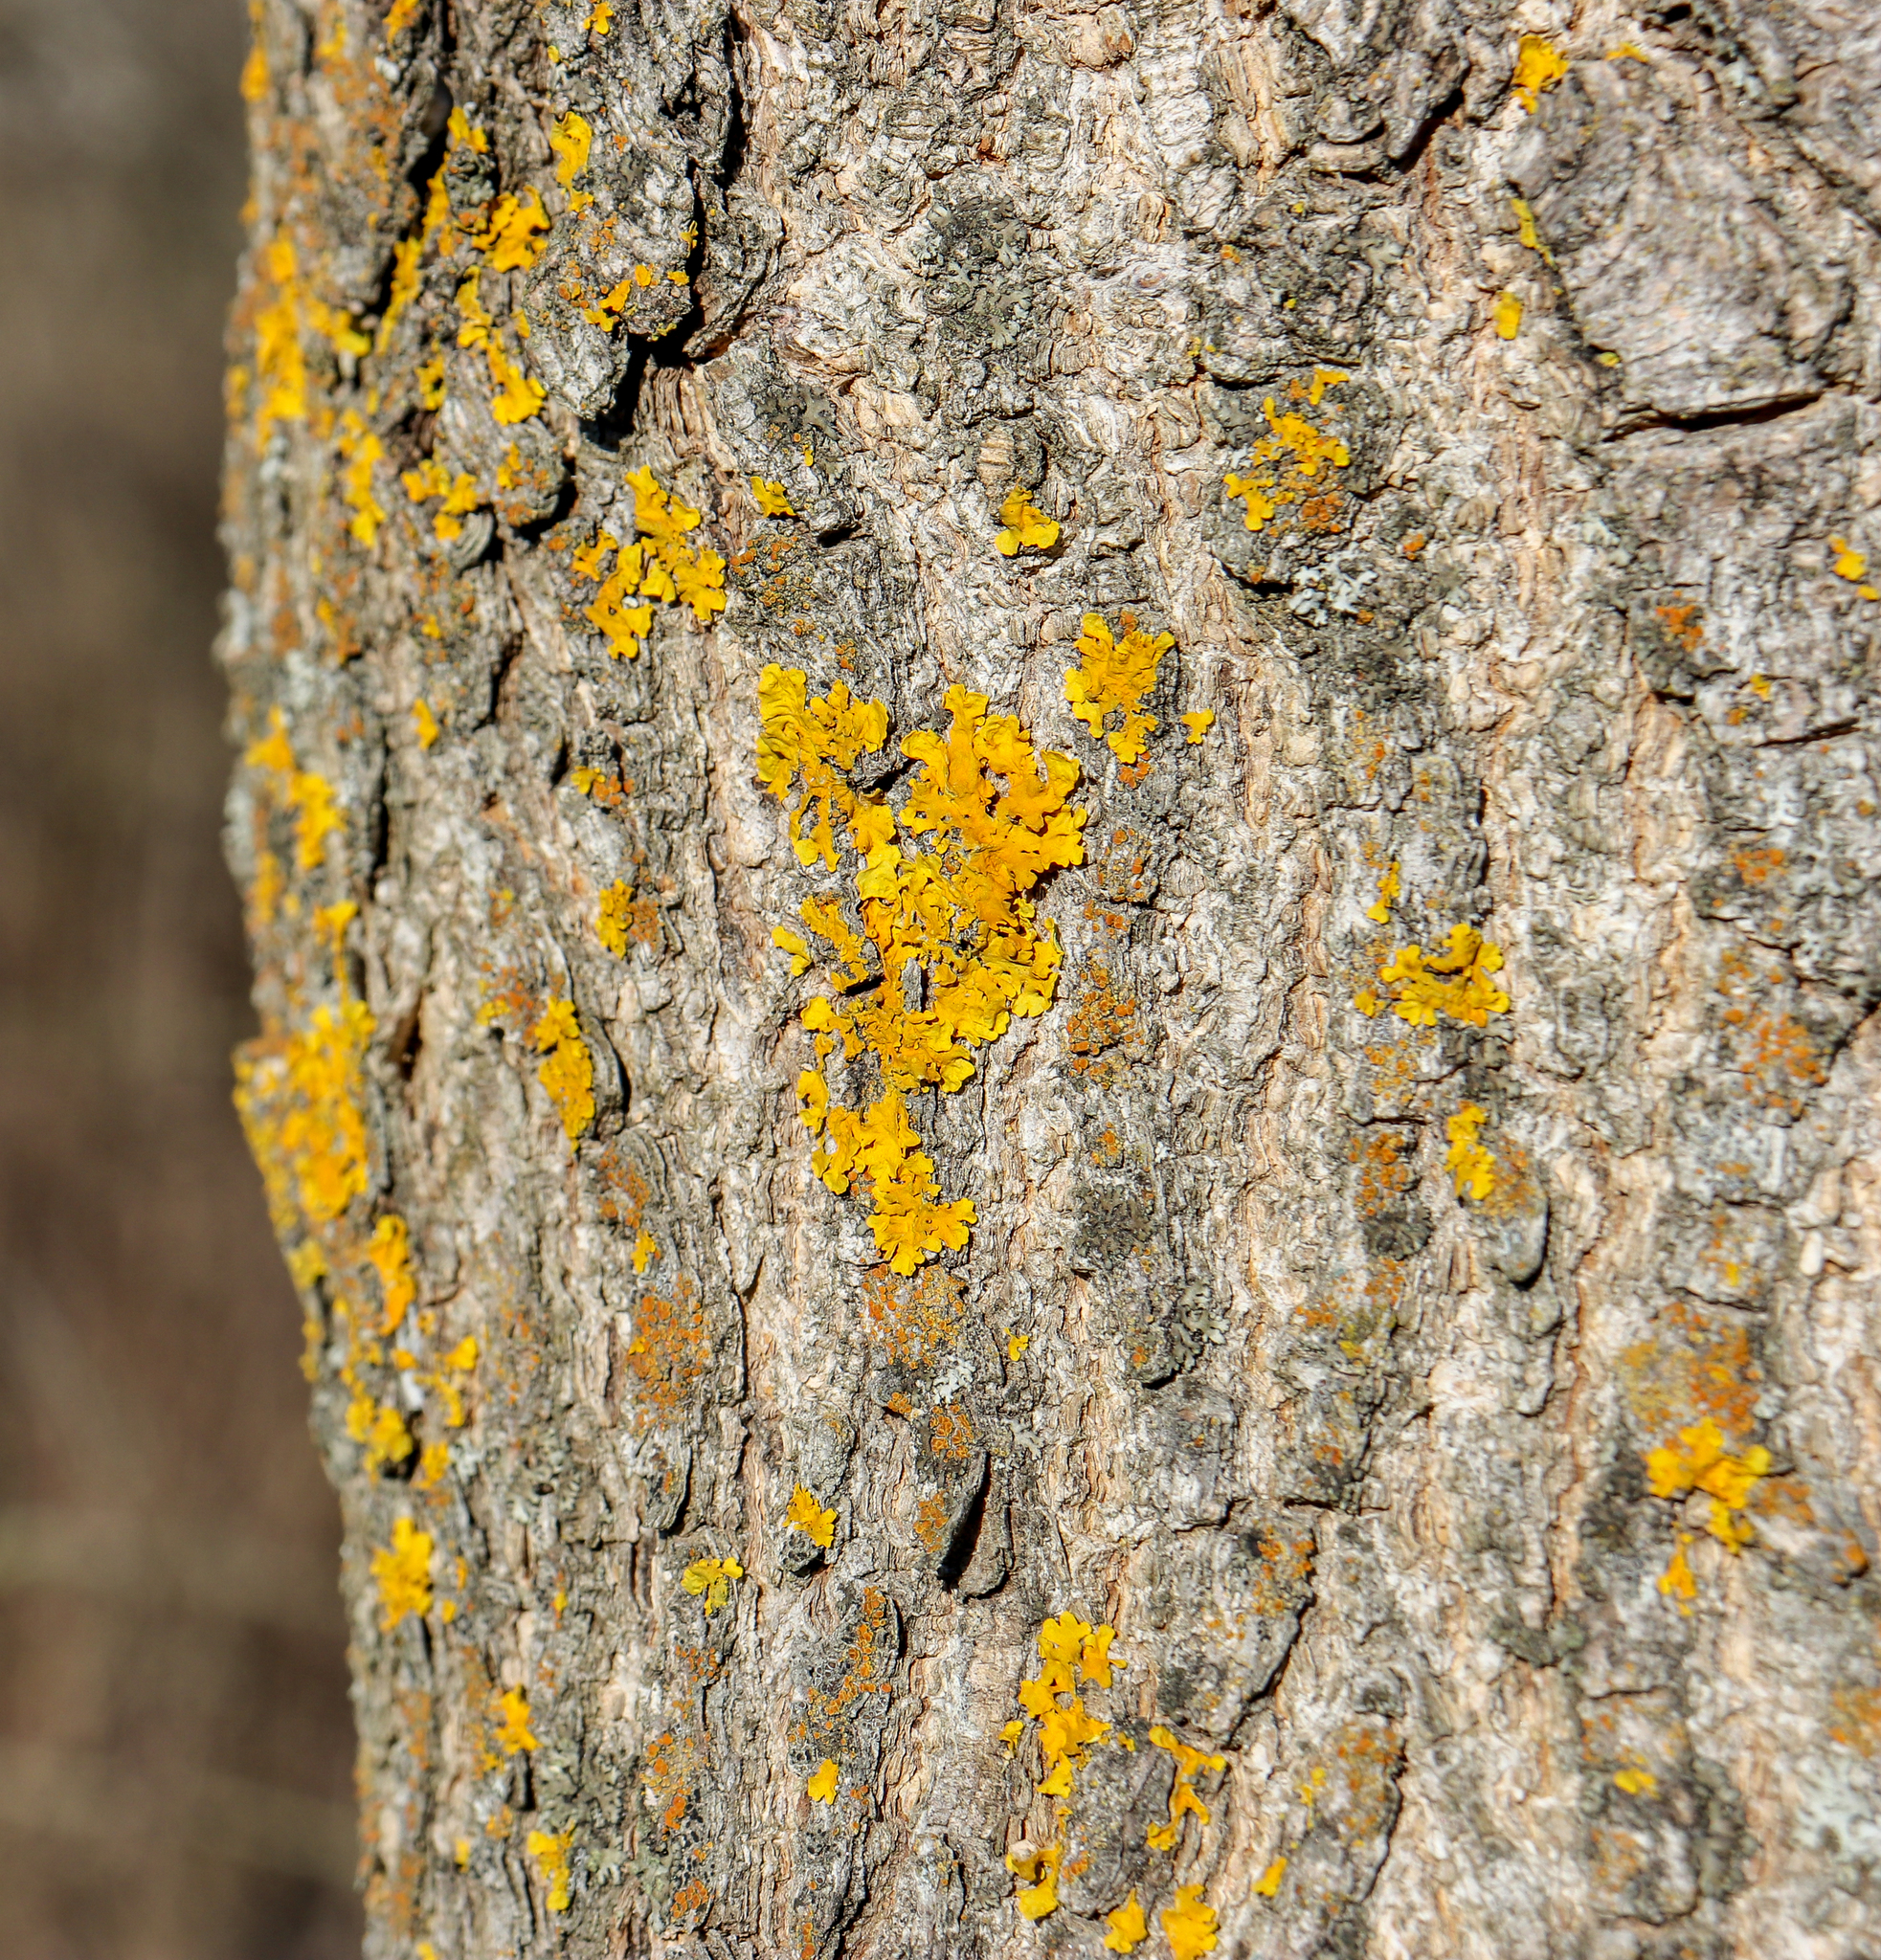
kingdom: Fungi
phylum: Ascomycota
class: Lecanoromycetes
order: Teloschistales
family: Teloschistaceae
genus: Xanthoria
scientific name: Xanthoria parietina
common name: Common orange lichen
